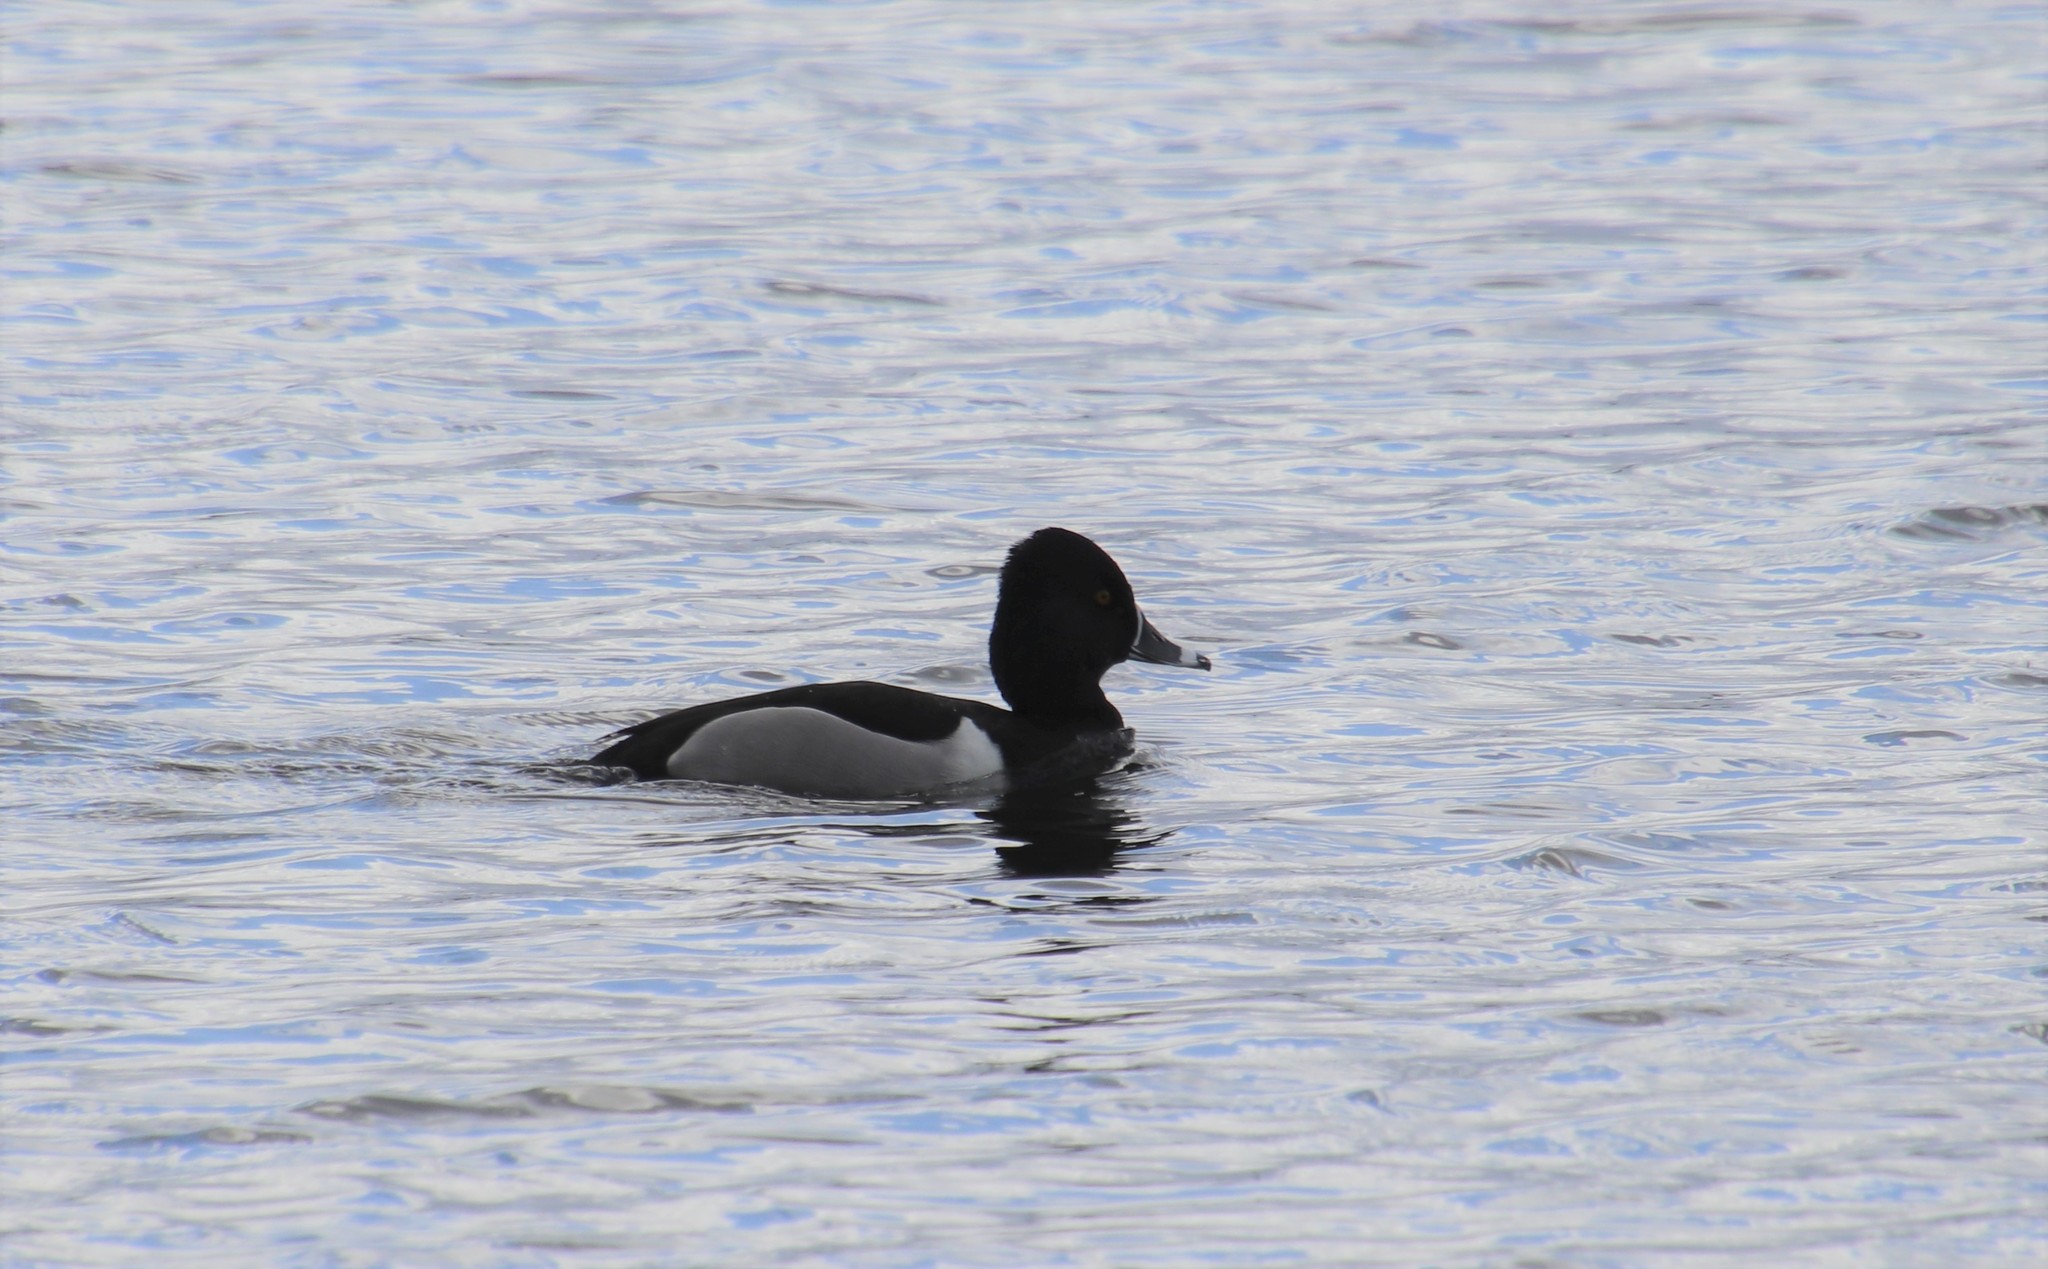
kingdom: Animalia
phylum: Chordata
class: Aves
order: Anseriformes
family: Anatidae
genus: Aythya
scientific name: Aythya collaris
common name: Ring-necked duck
